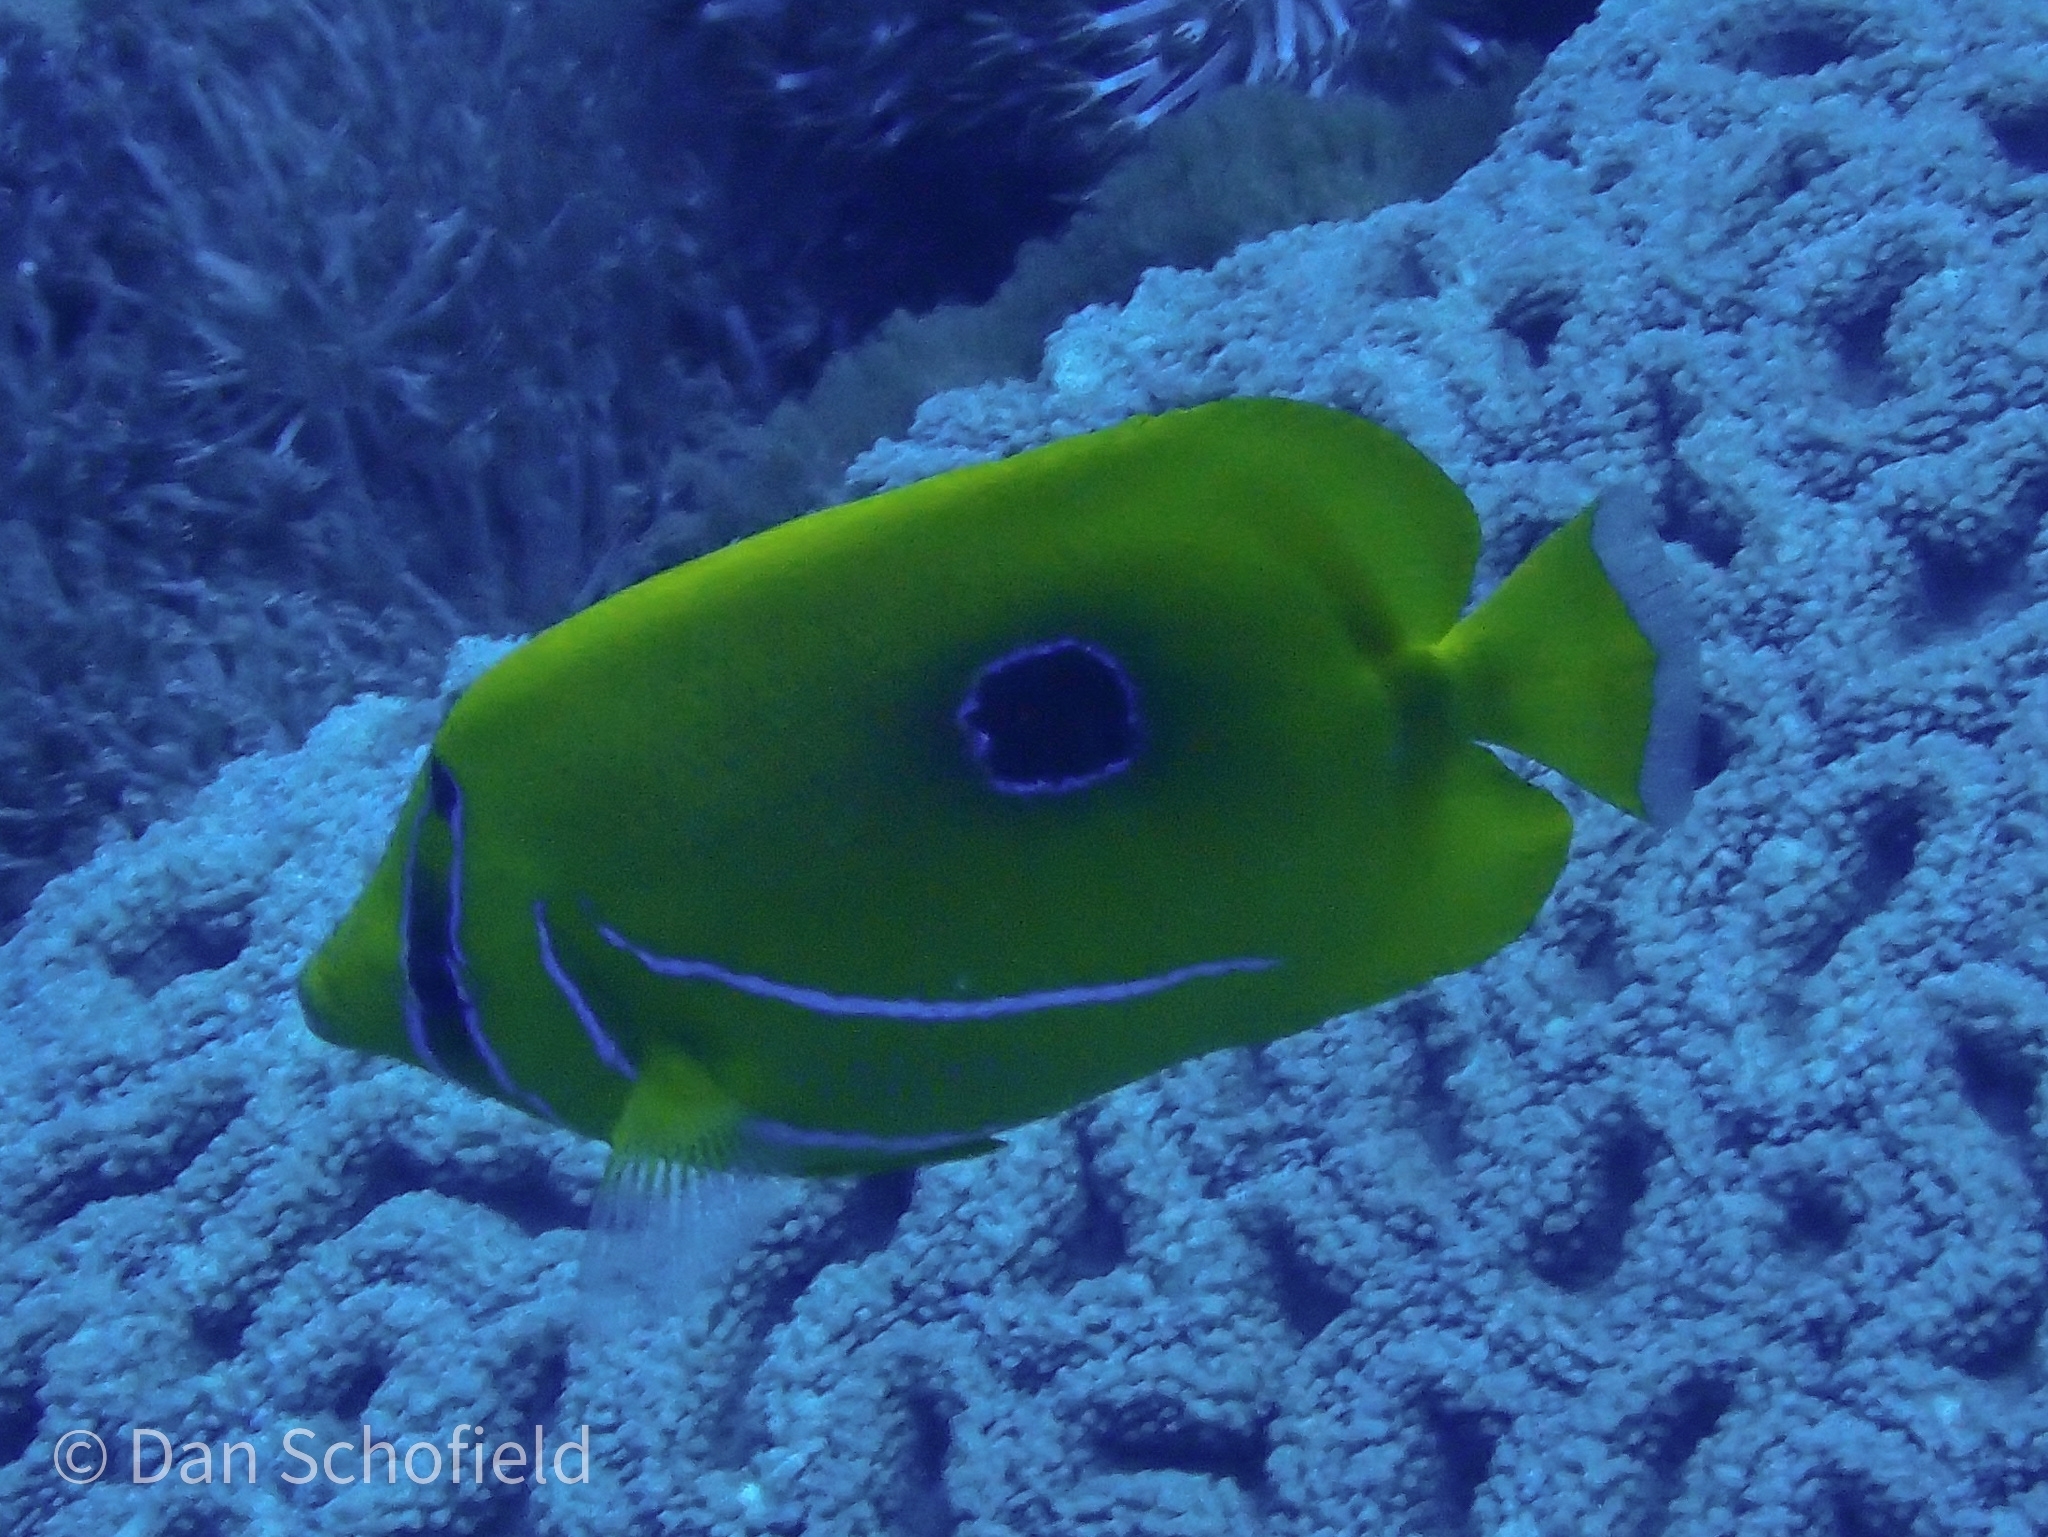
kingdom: Animalia
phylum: Chordata
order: Perciformes
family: Chaetodontidae
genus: Chaetodon
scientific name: Chaetodon bennetti
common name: Bennett's butterflyfish
